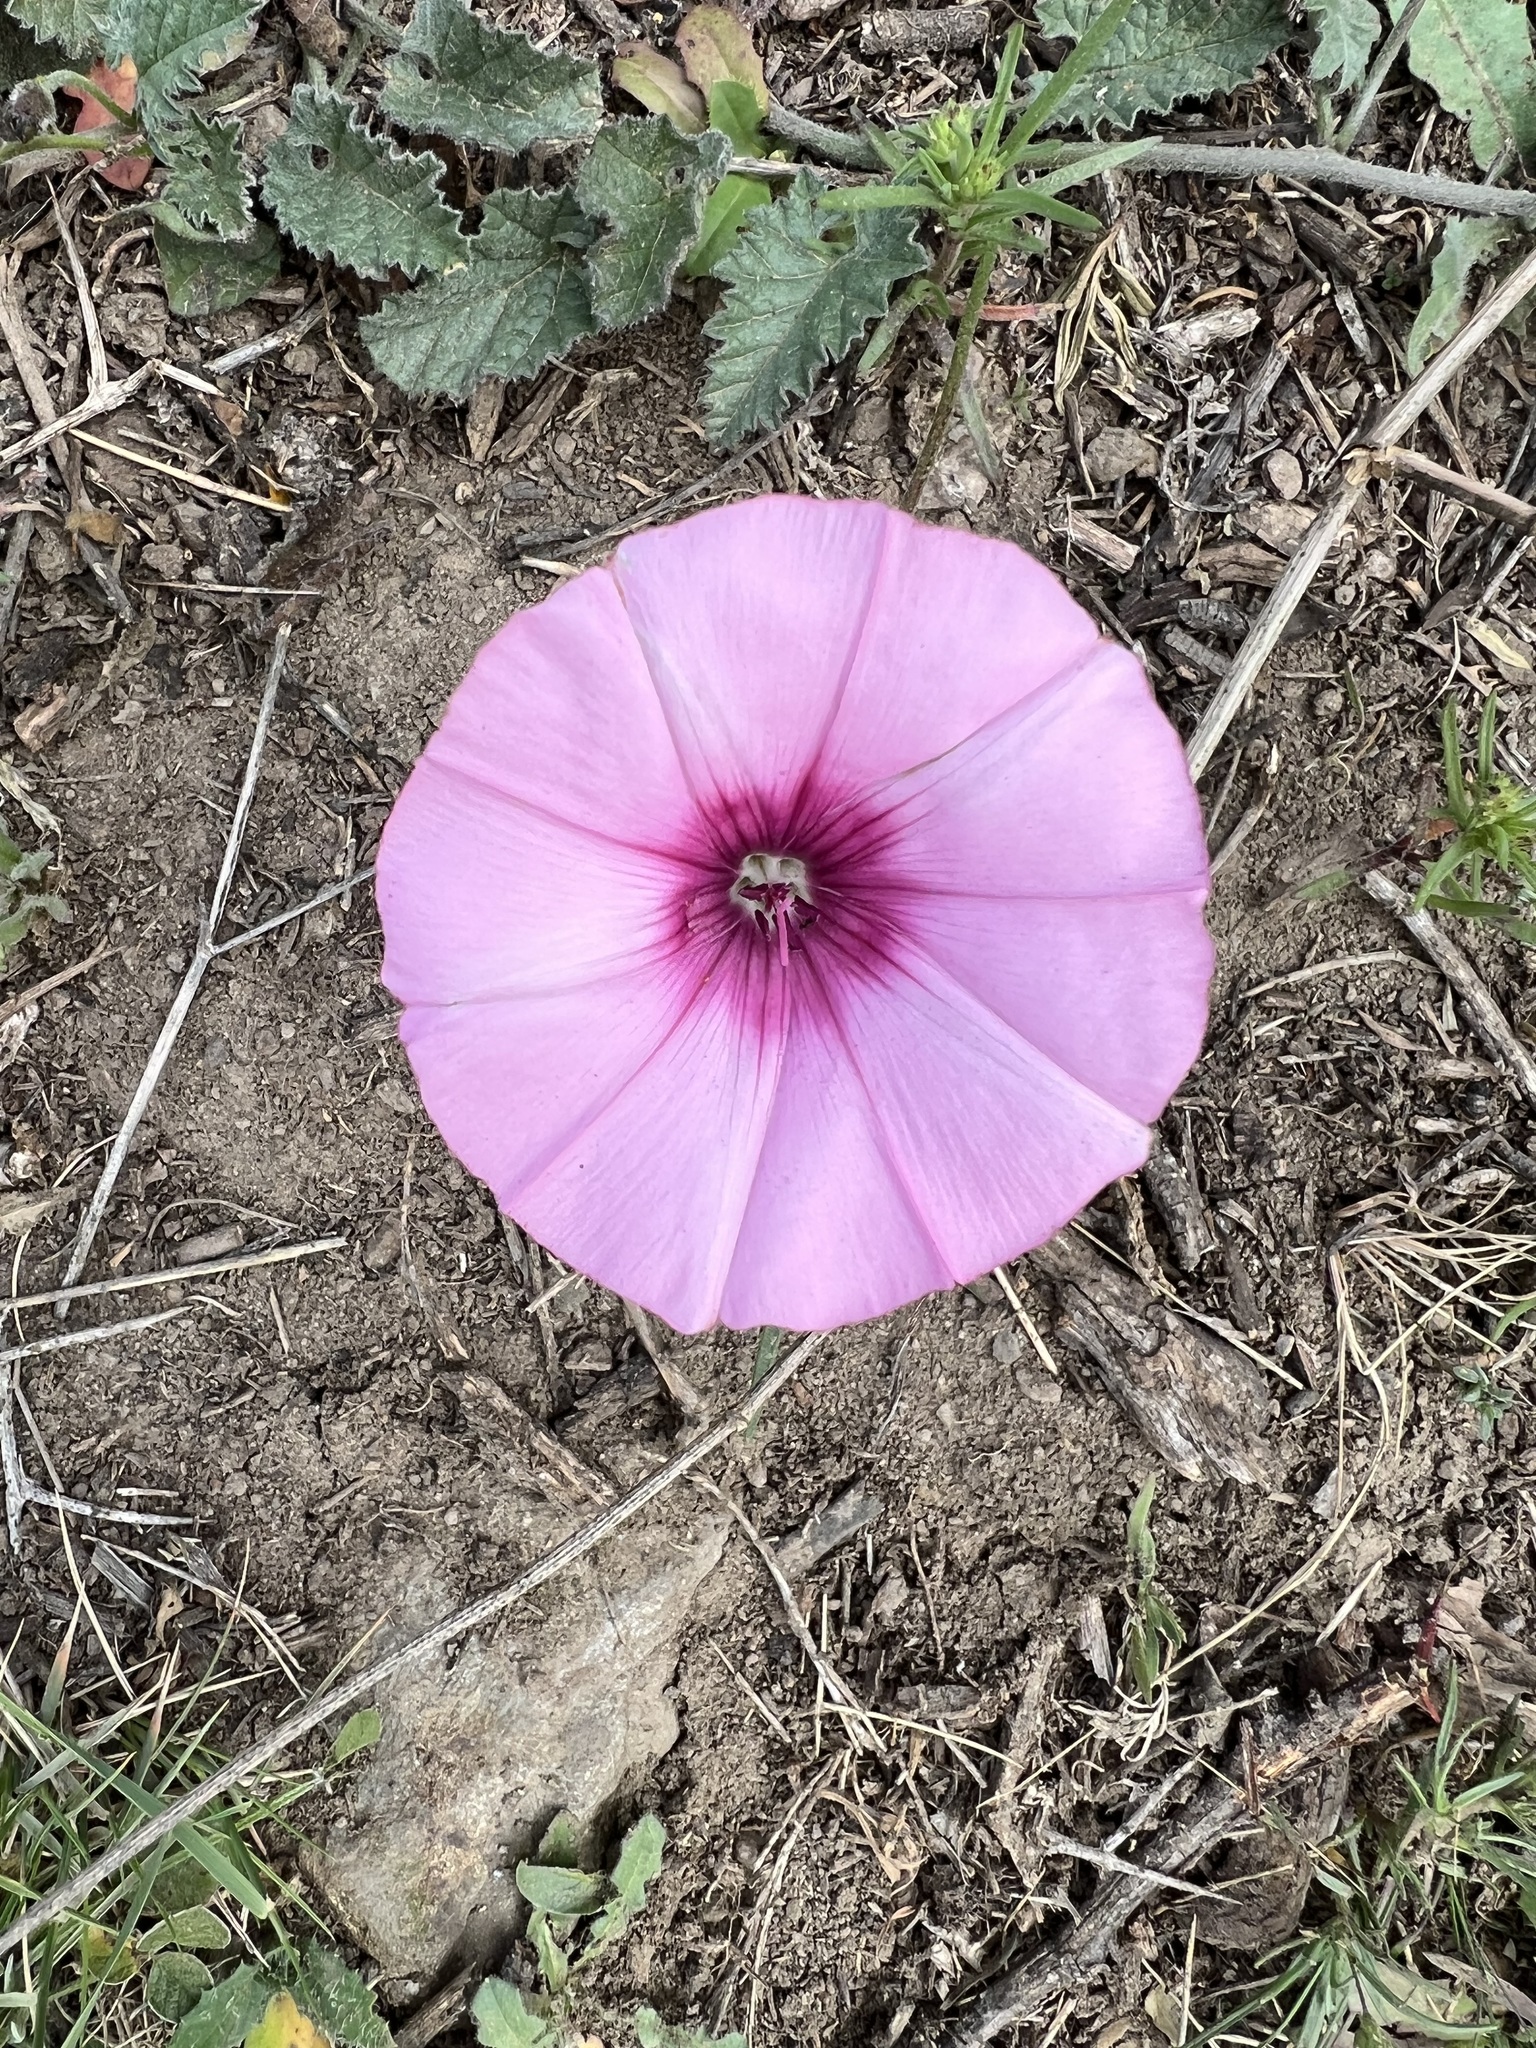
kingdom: Plantae
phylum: Tracheophyta
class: Magnoliopsida
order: Solanales
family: Convolvulaceae
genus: Convolvulus
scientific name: Convolvulus althaeoides
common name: Mallow bindweed
